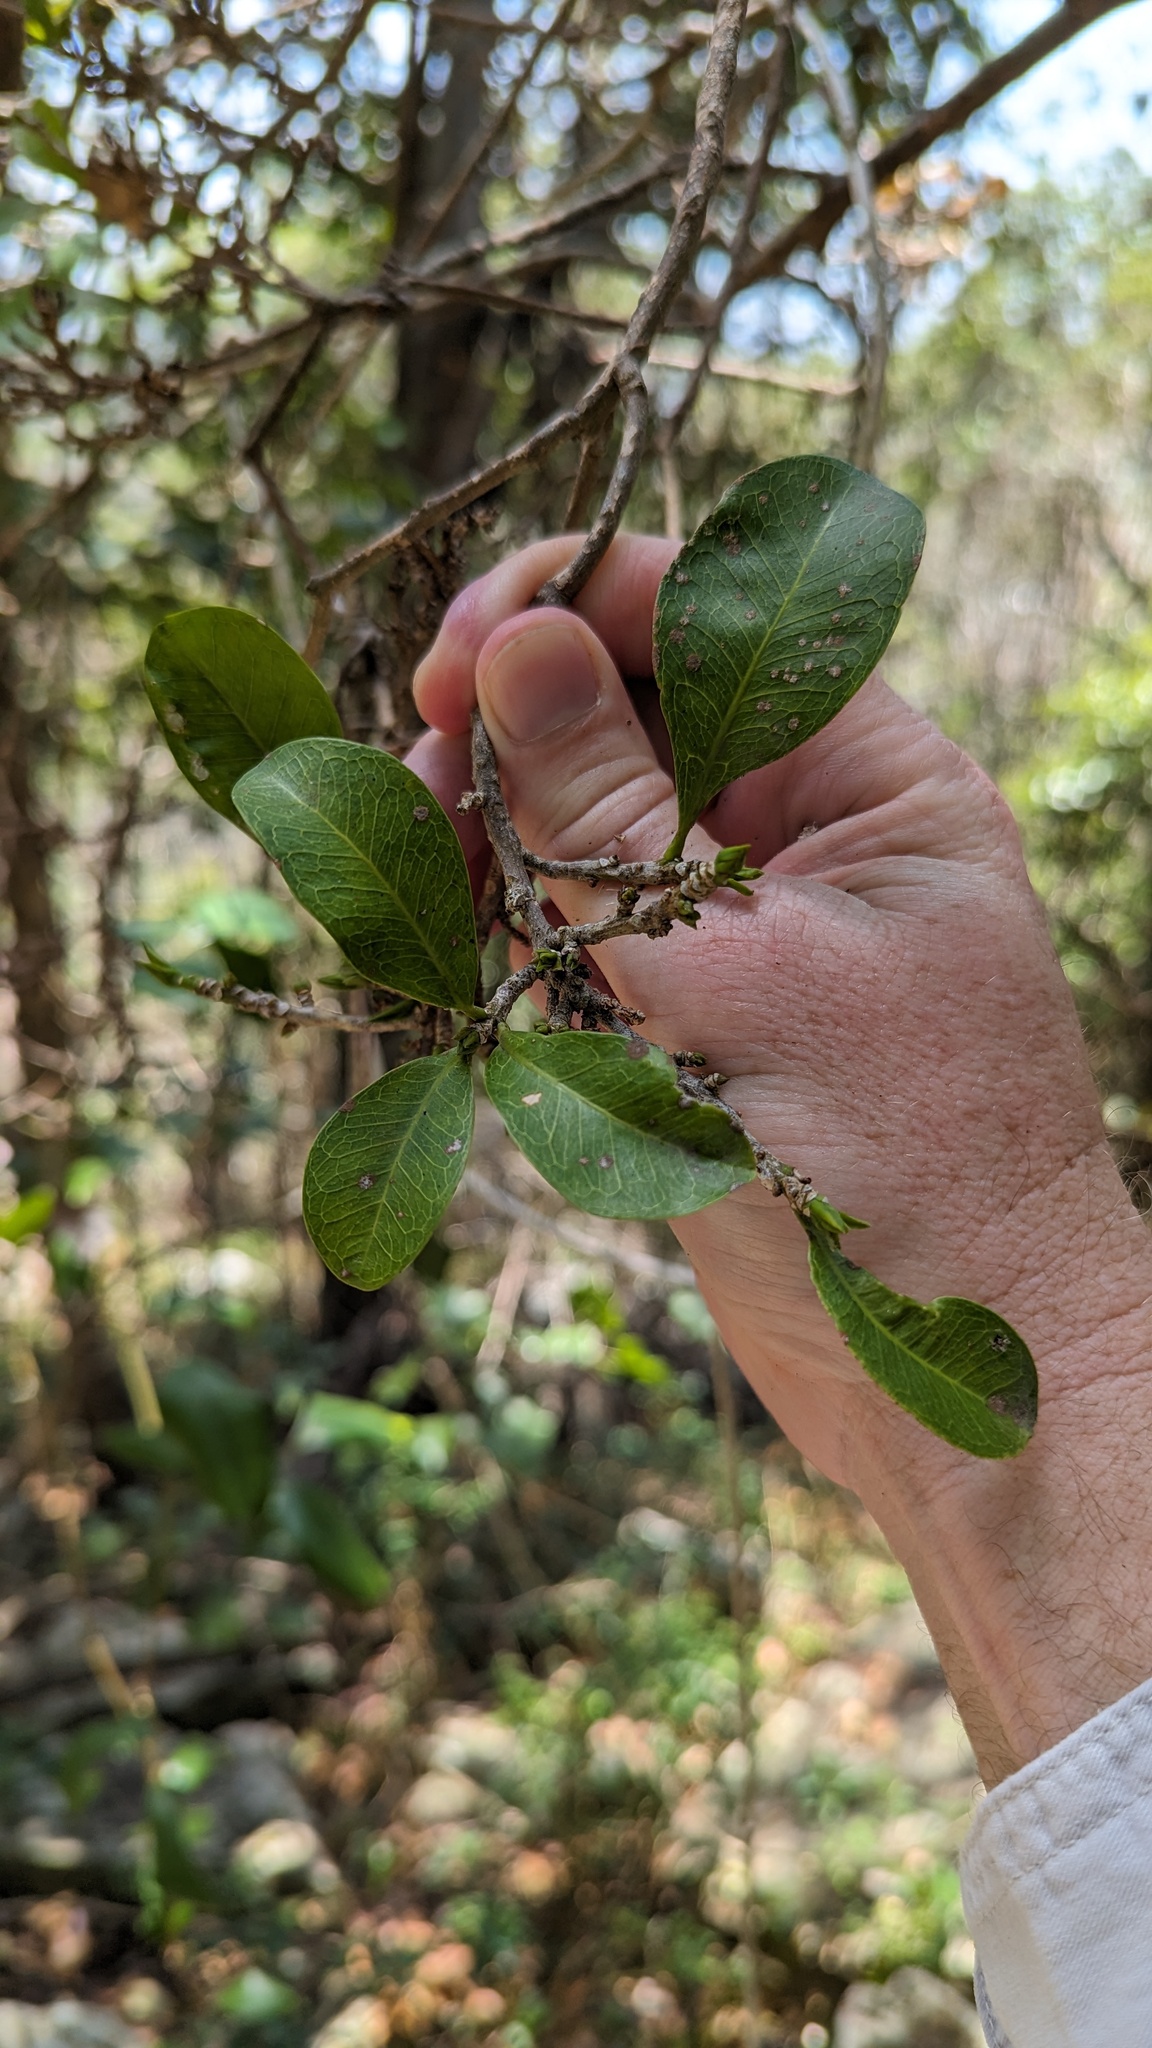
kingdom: Plantae
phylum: Tracheophyta
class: Magnoliopsida
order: Malpighiales
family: Euphorbiaceae
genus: Fontainea
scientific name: Fontainea venosa
